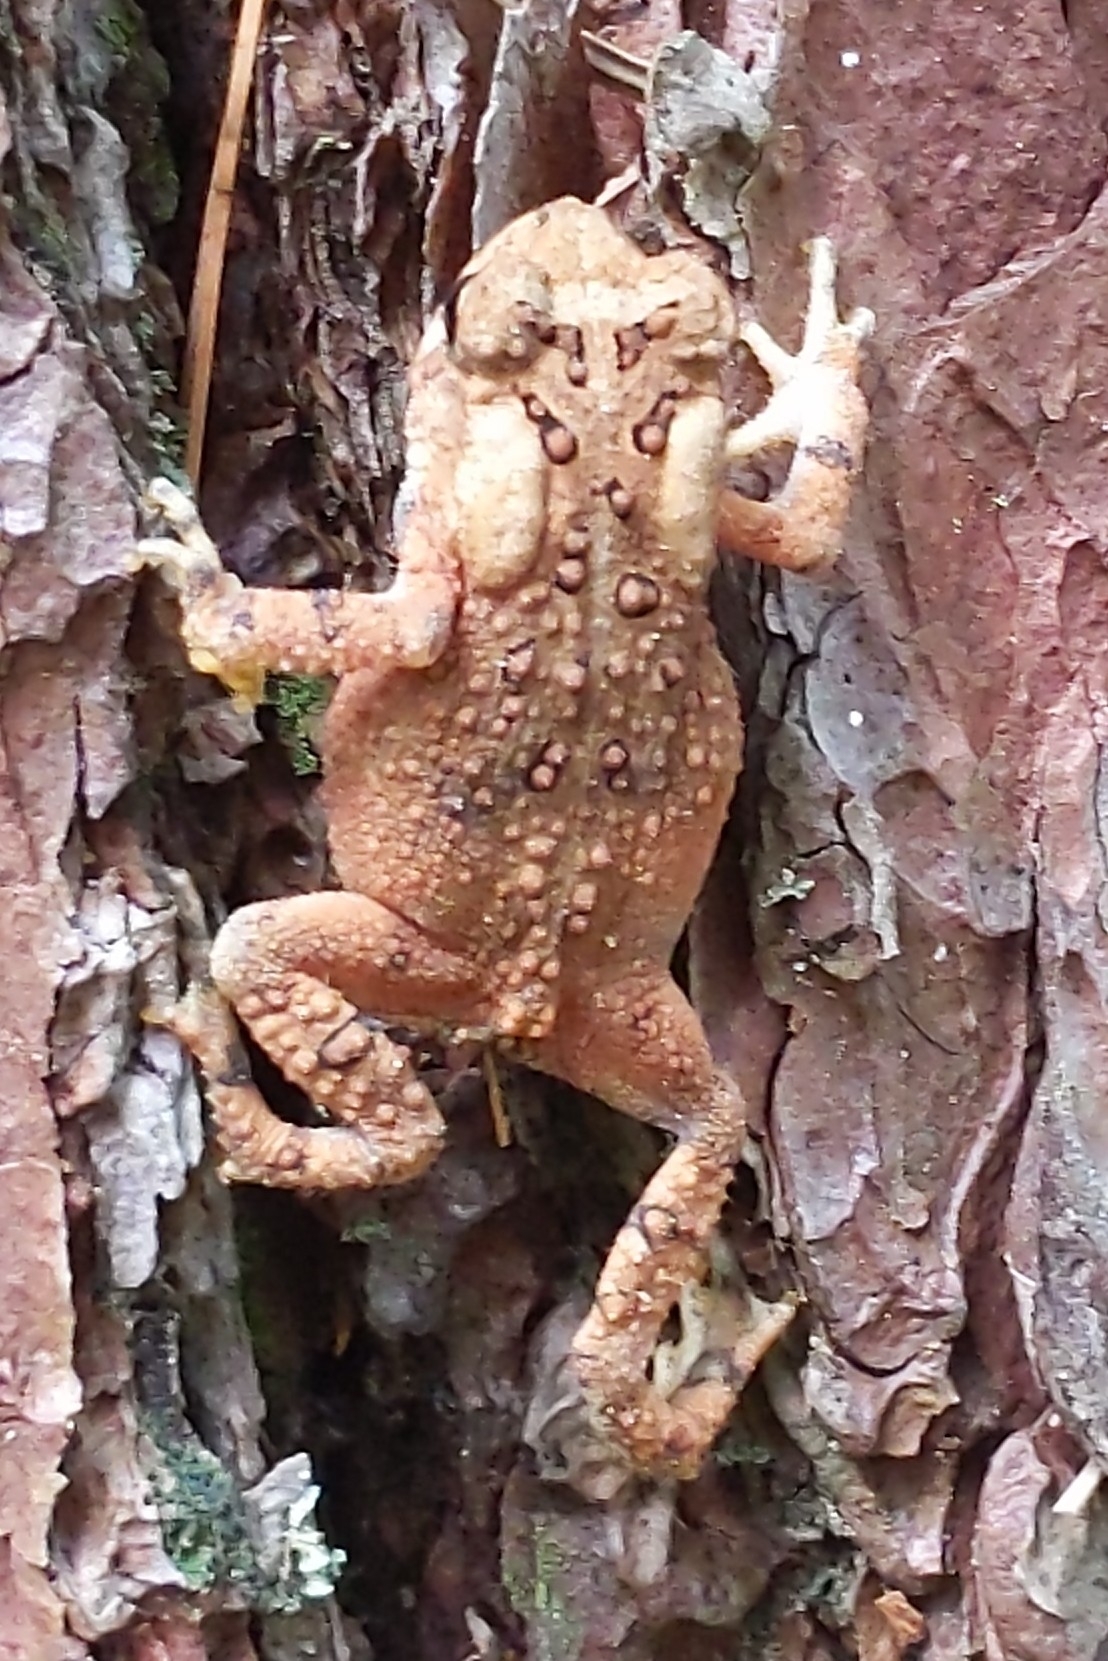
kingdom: Animalia
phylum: Chordata
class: Amphibia
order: Anura
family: Bufonidae
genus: Anaxyrus
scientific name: Anaxyrus americanus
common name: American toad
